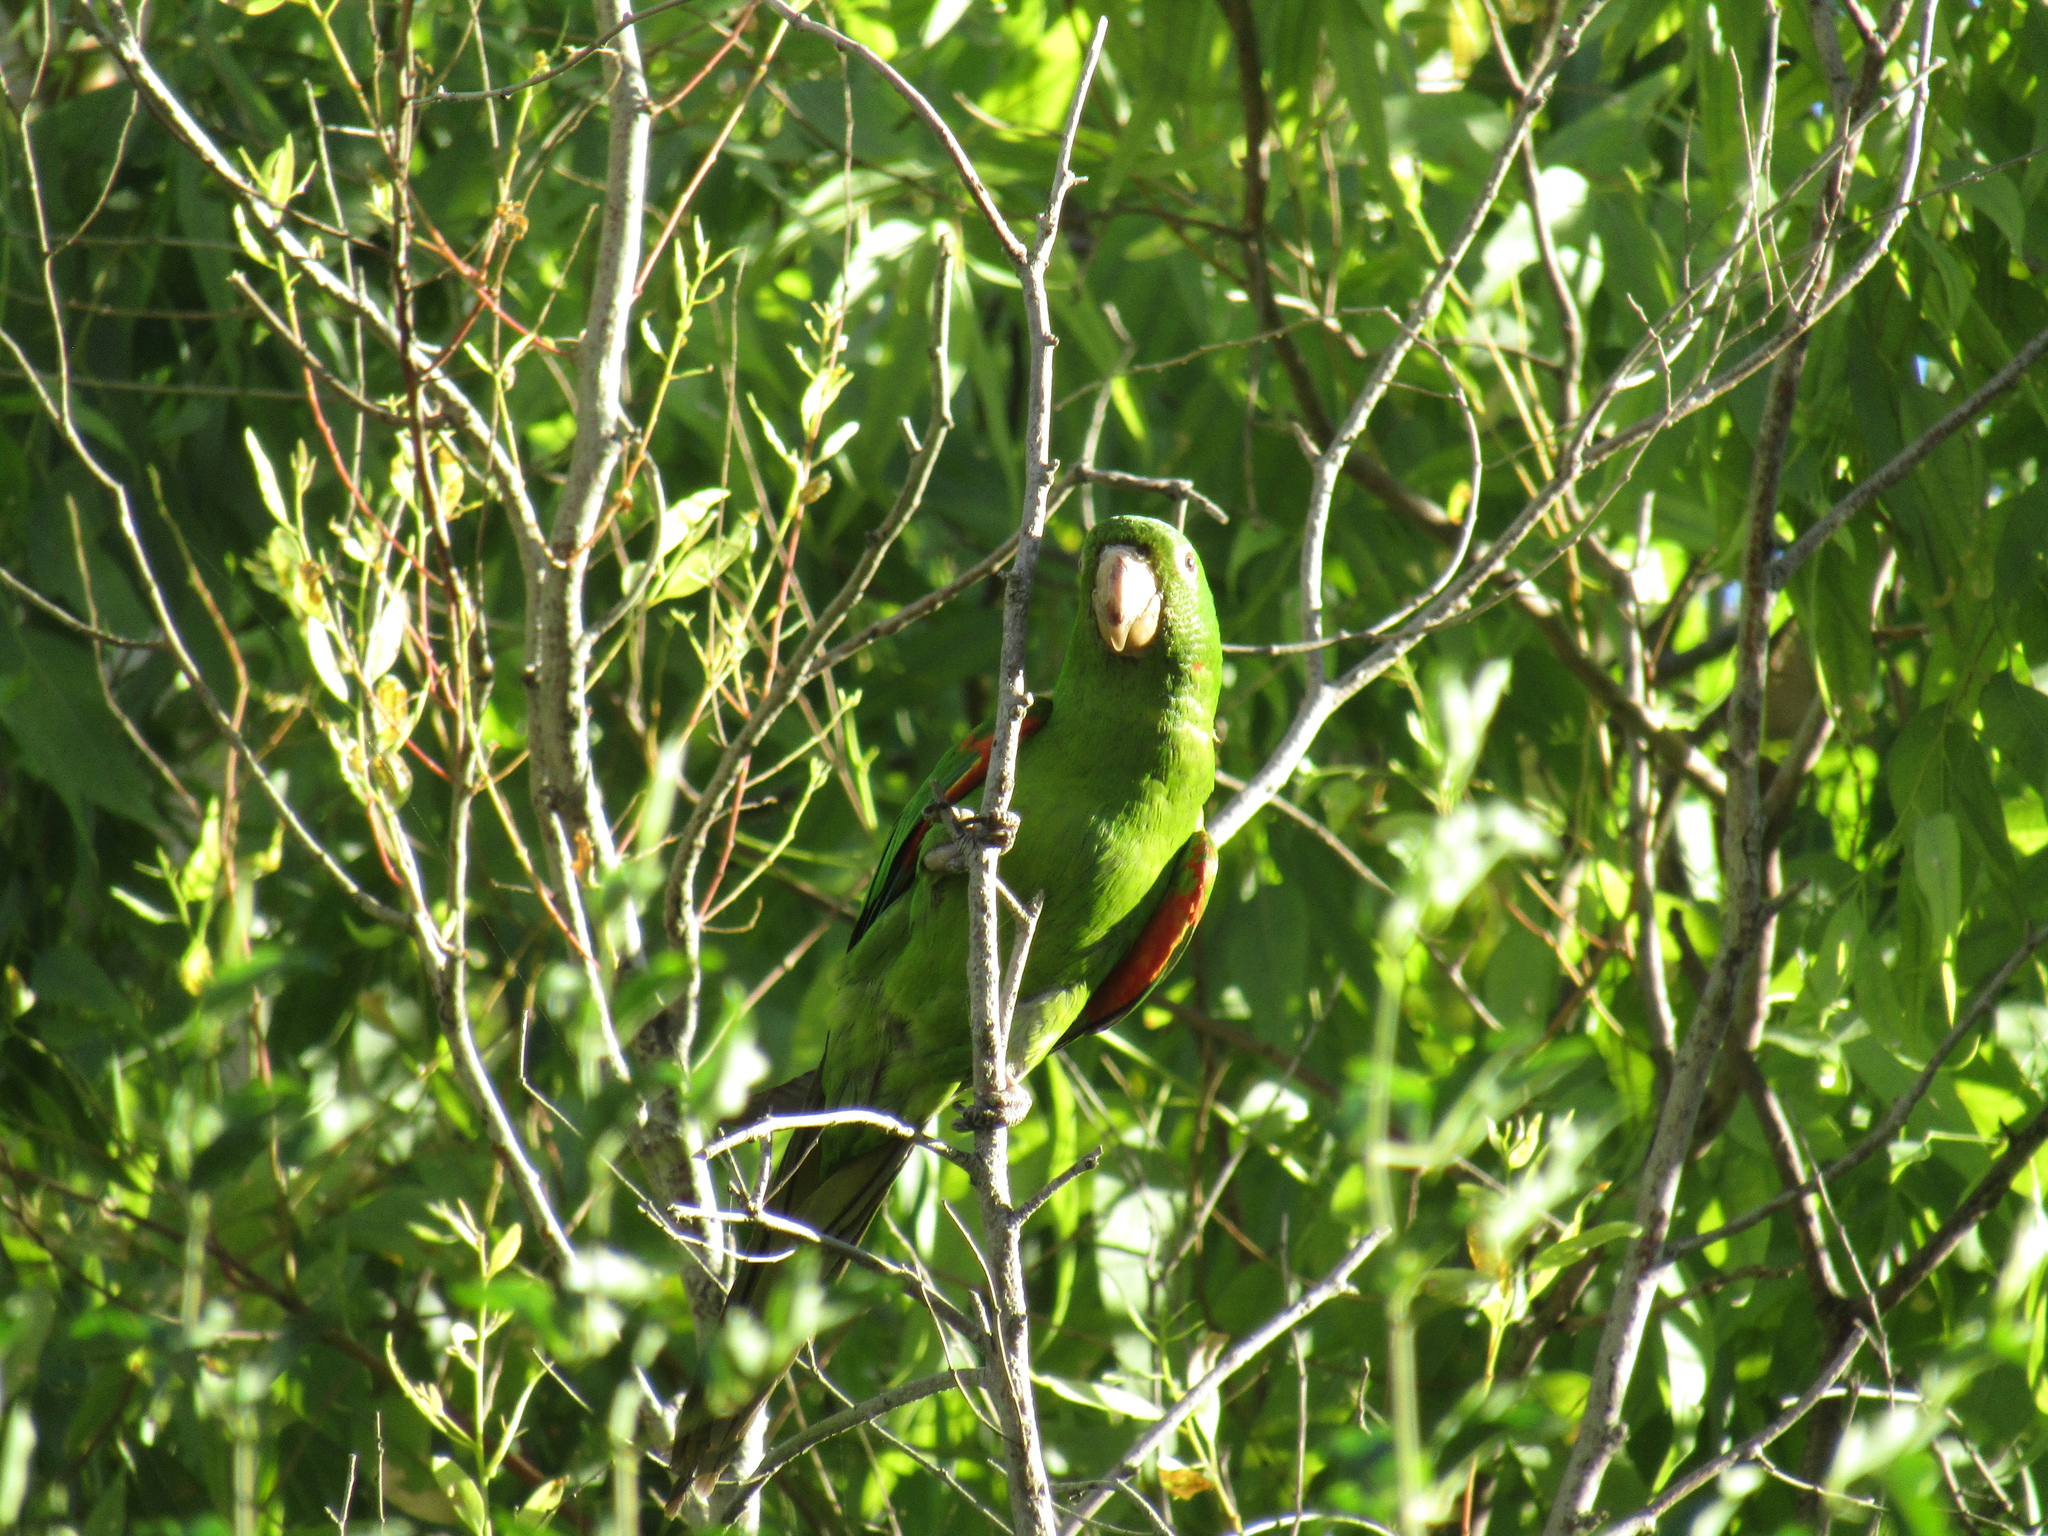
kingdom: Animalia
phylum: Chordata
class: Aves
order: Psittaciformes
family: Psittacidae
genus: Aratinga
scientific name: Aratinga leucophthalma
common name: White-eyed parakeet
